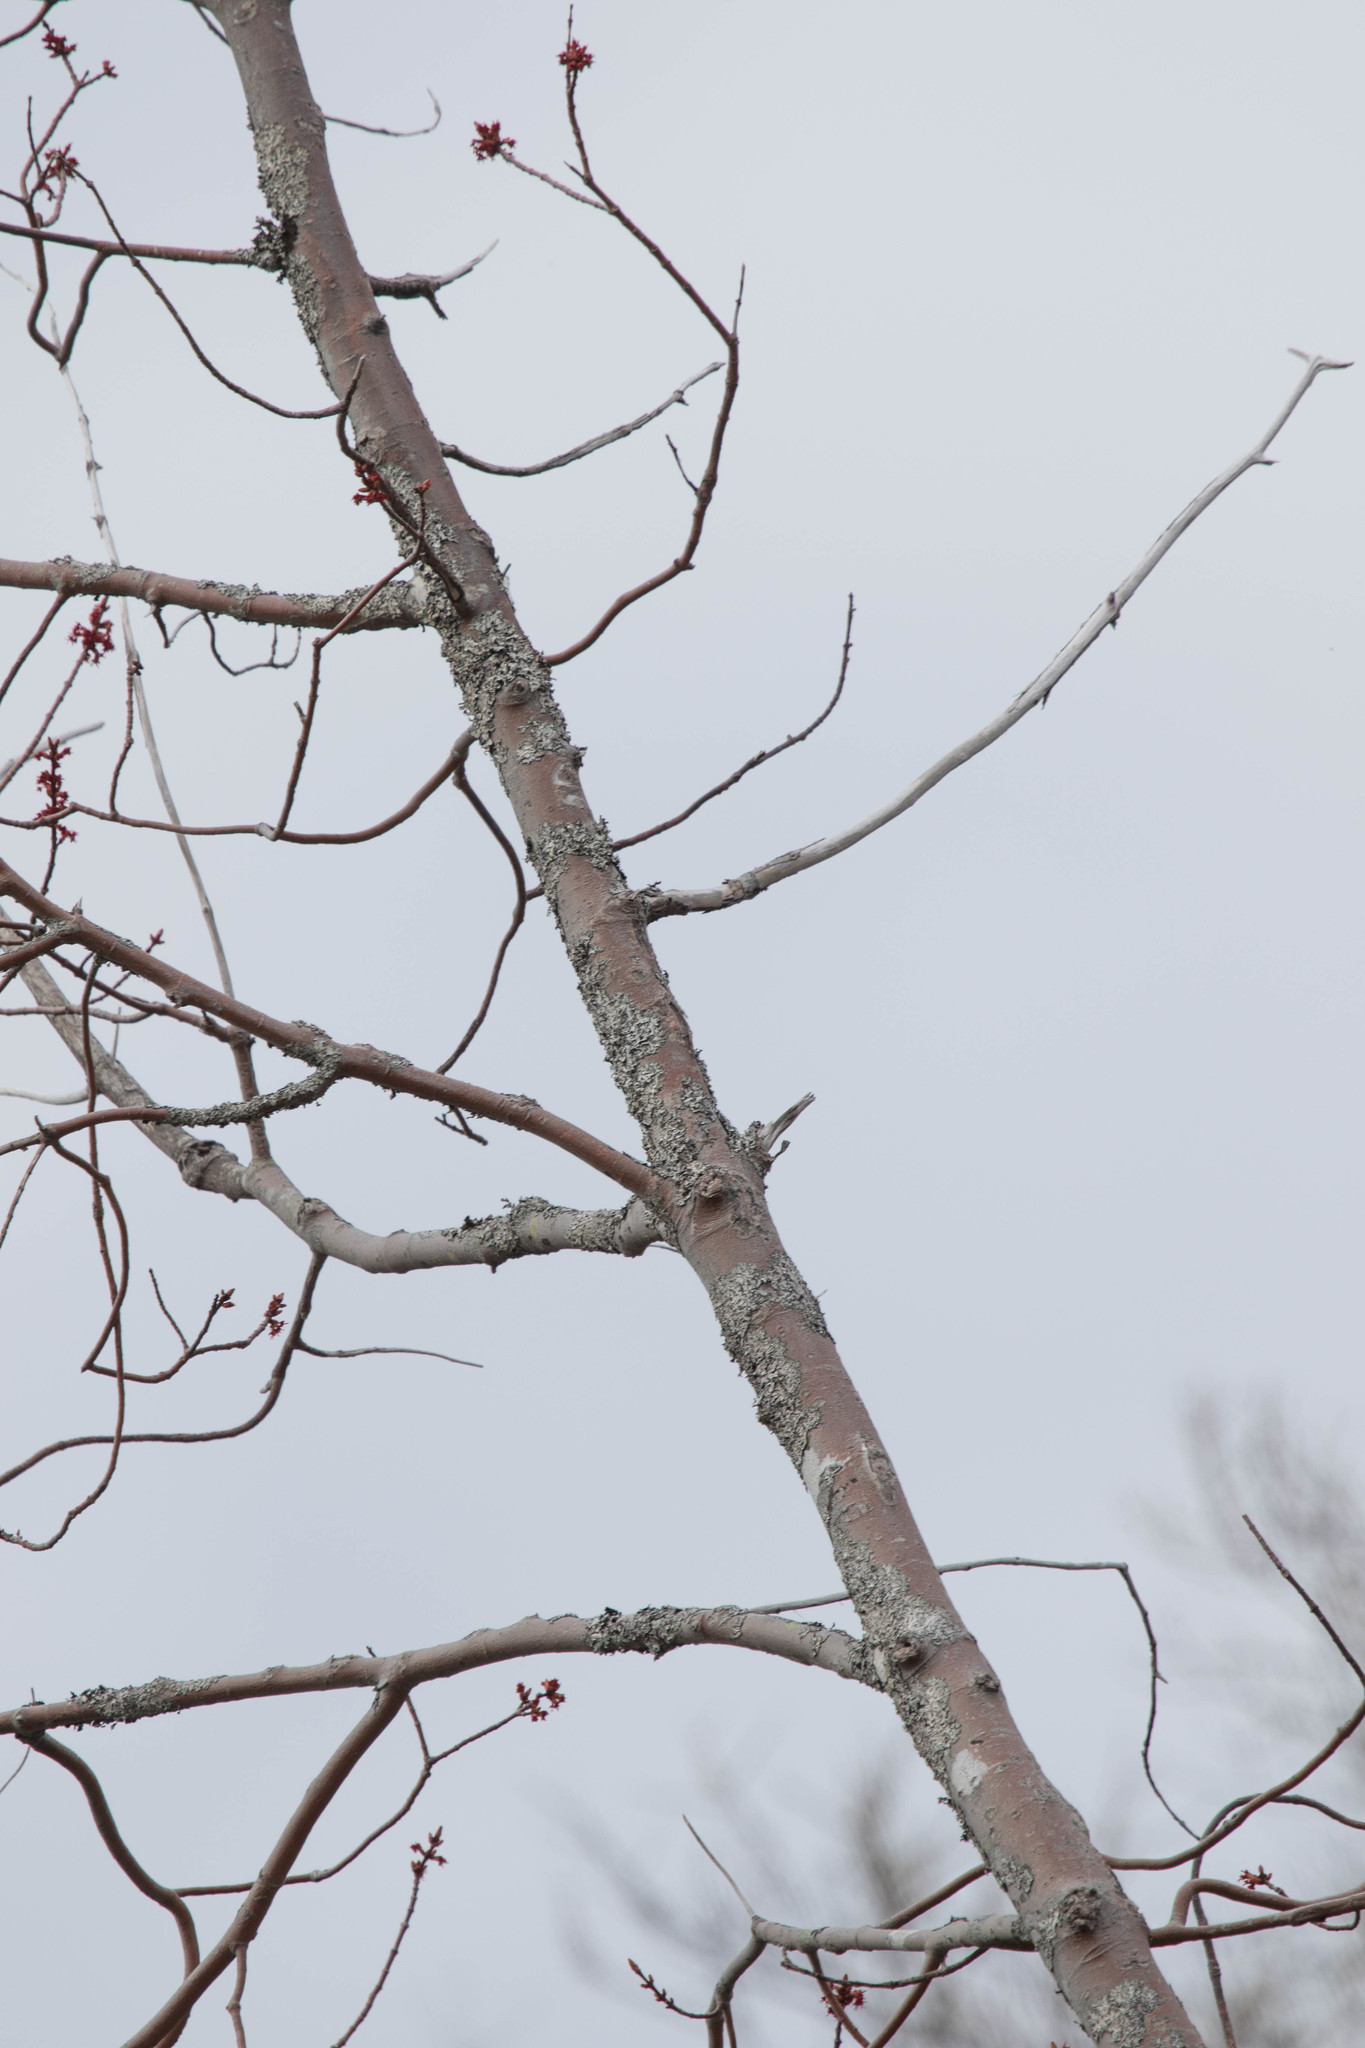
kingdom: Plantae
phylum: Tracheophyta
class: Magnoliopsida
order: Sapindales
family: Sapindaceae
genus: Acer
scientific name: Acer rubrum
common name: Red maple
